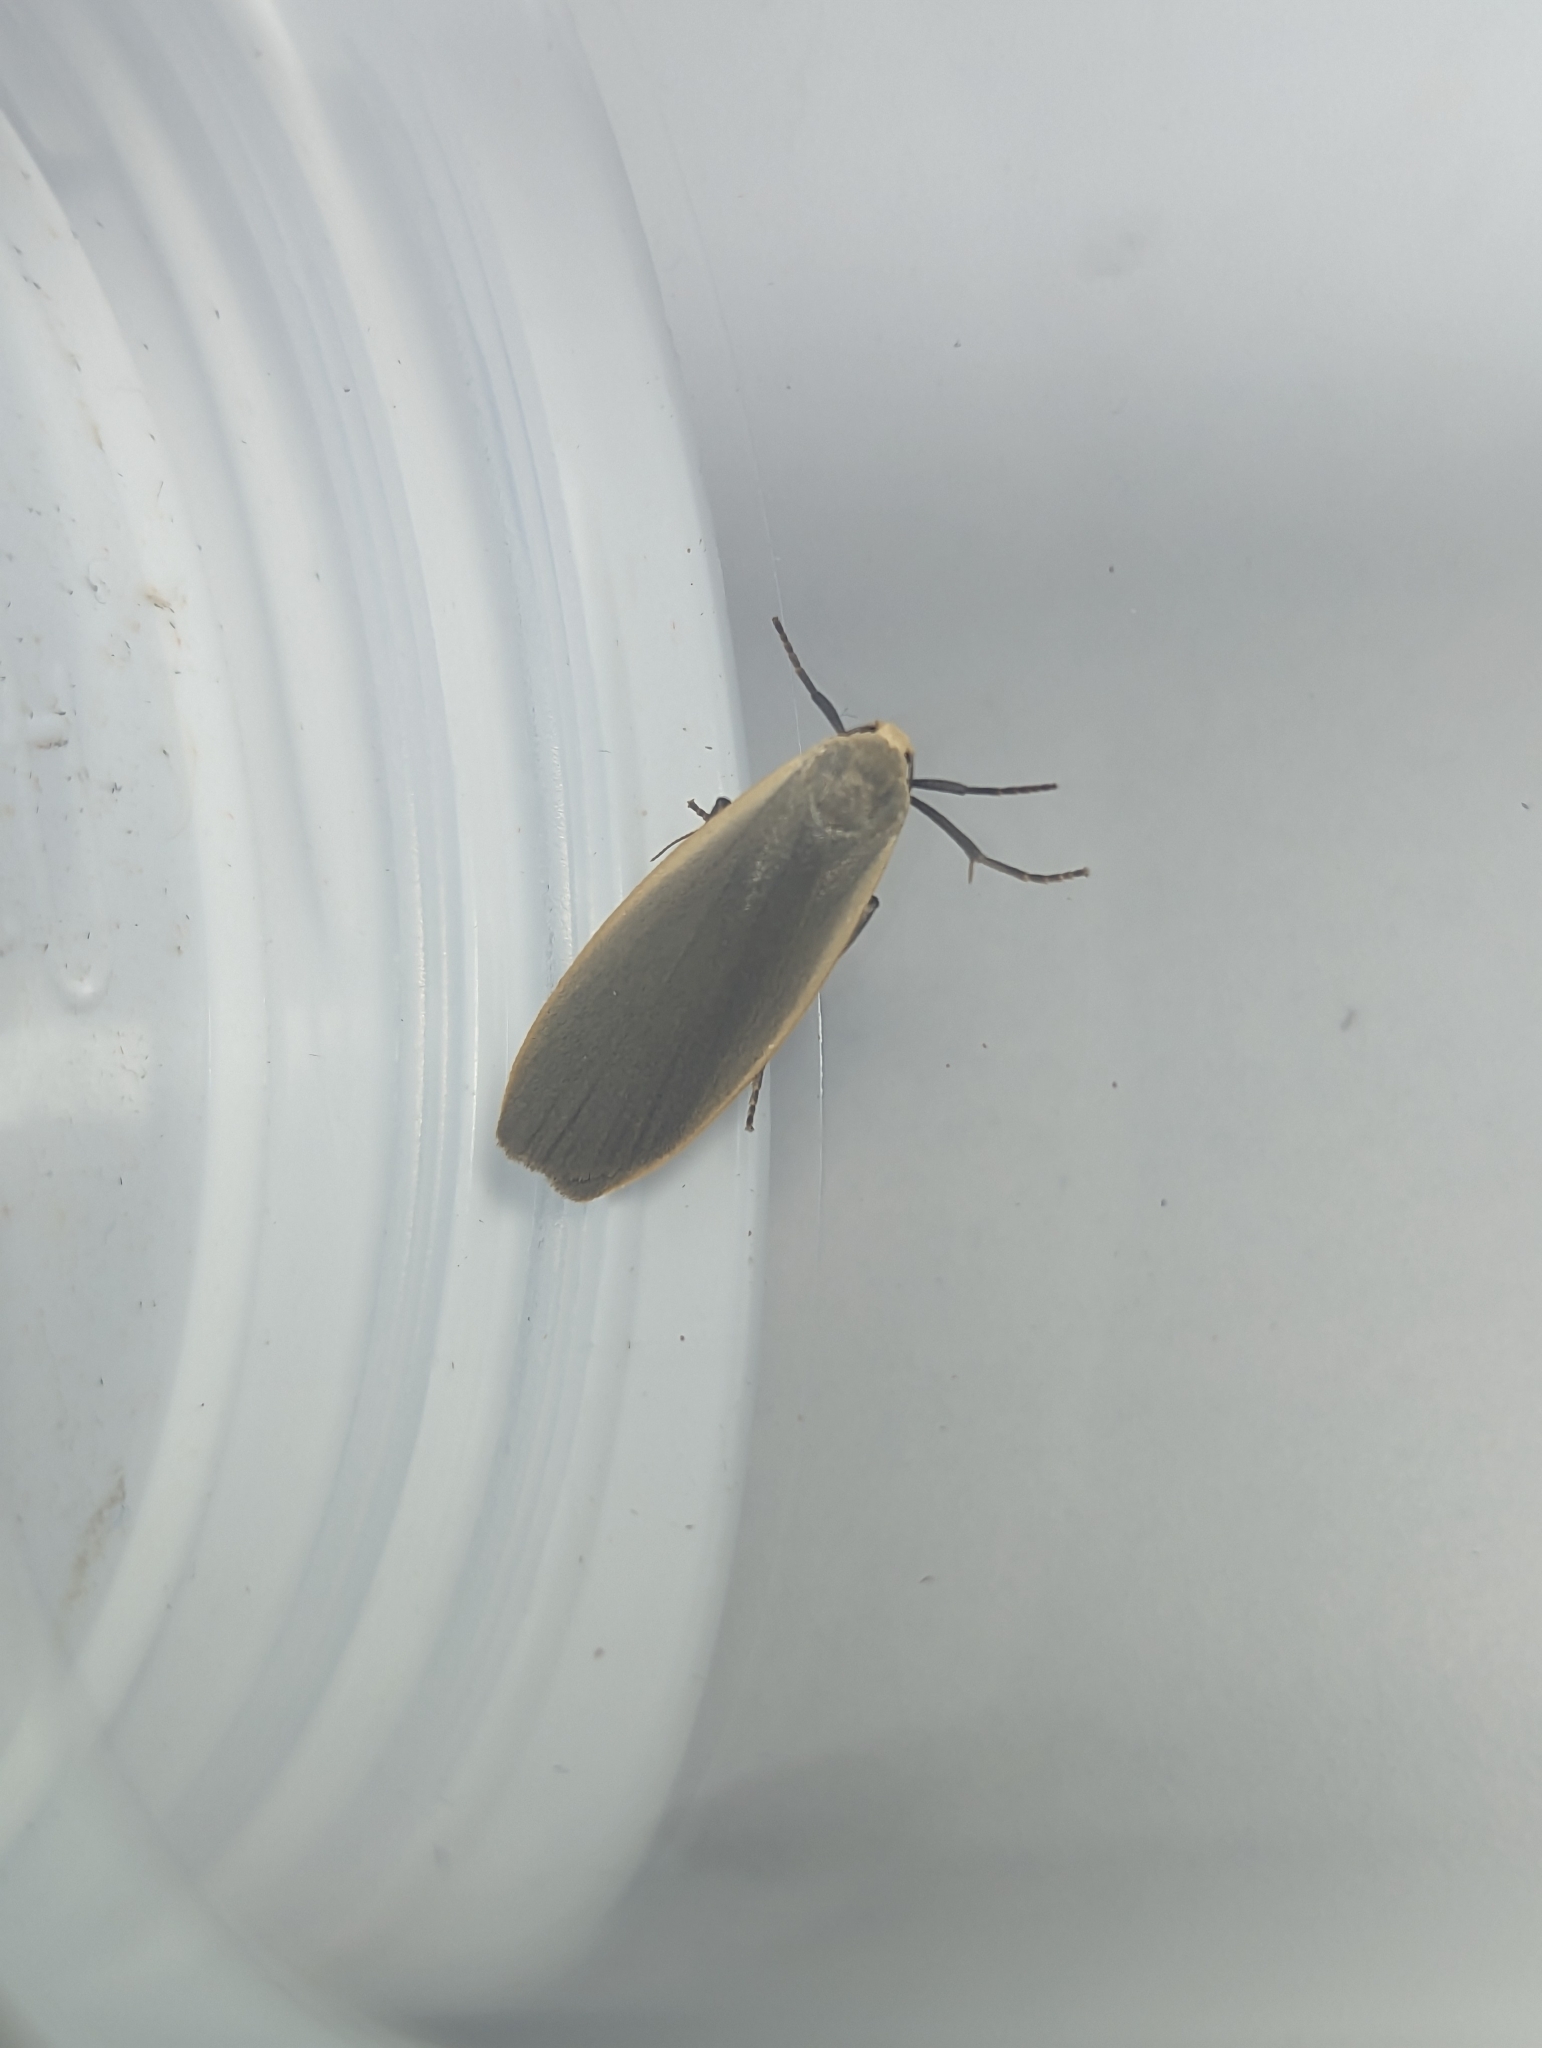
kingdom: Animalia
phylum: Arthropoda
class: Insecta
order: Lepidoptera
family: Erebidae
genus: Collita
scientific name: Collita griseola
